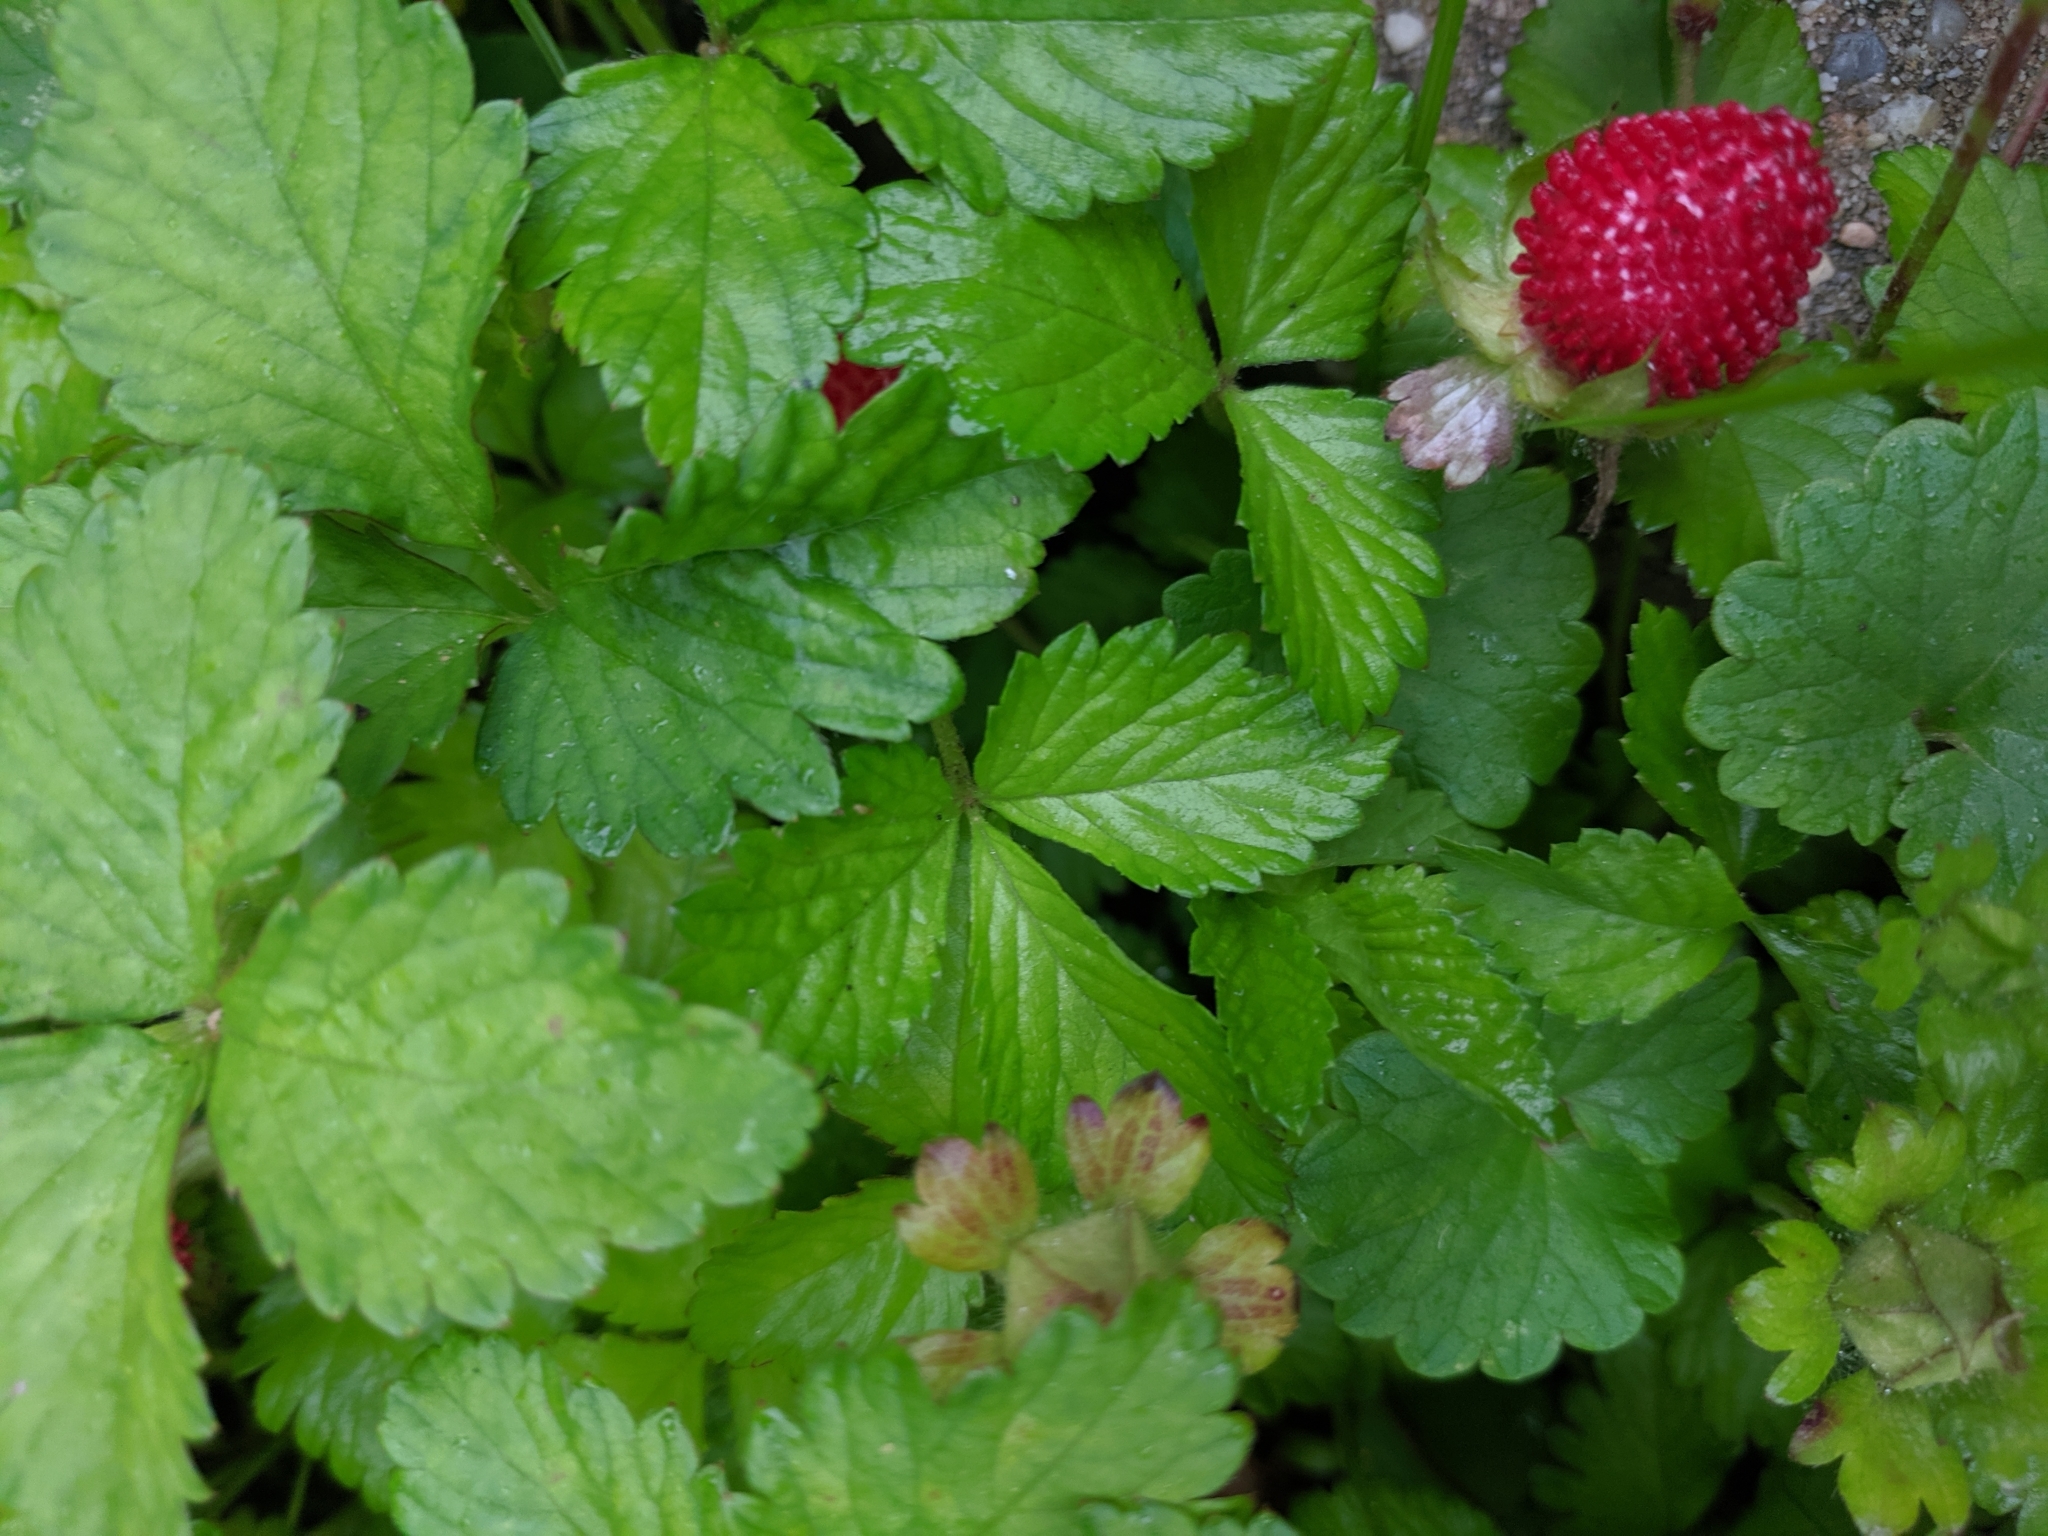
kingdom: Plantae
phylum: Tracheophyta
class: Magnoliopsida
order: Rosales
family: Rosaceae
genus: Potentilla
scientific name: Potentilla indica
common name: Yellow-flowered strawberry
